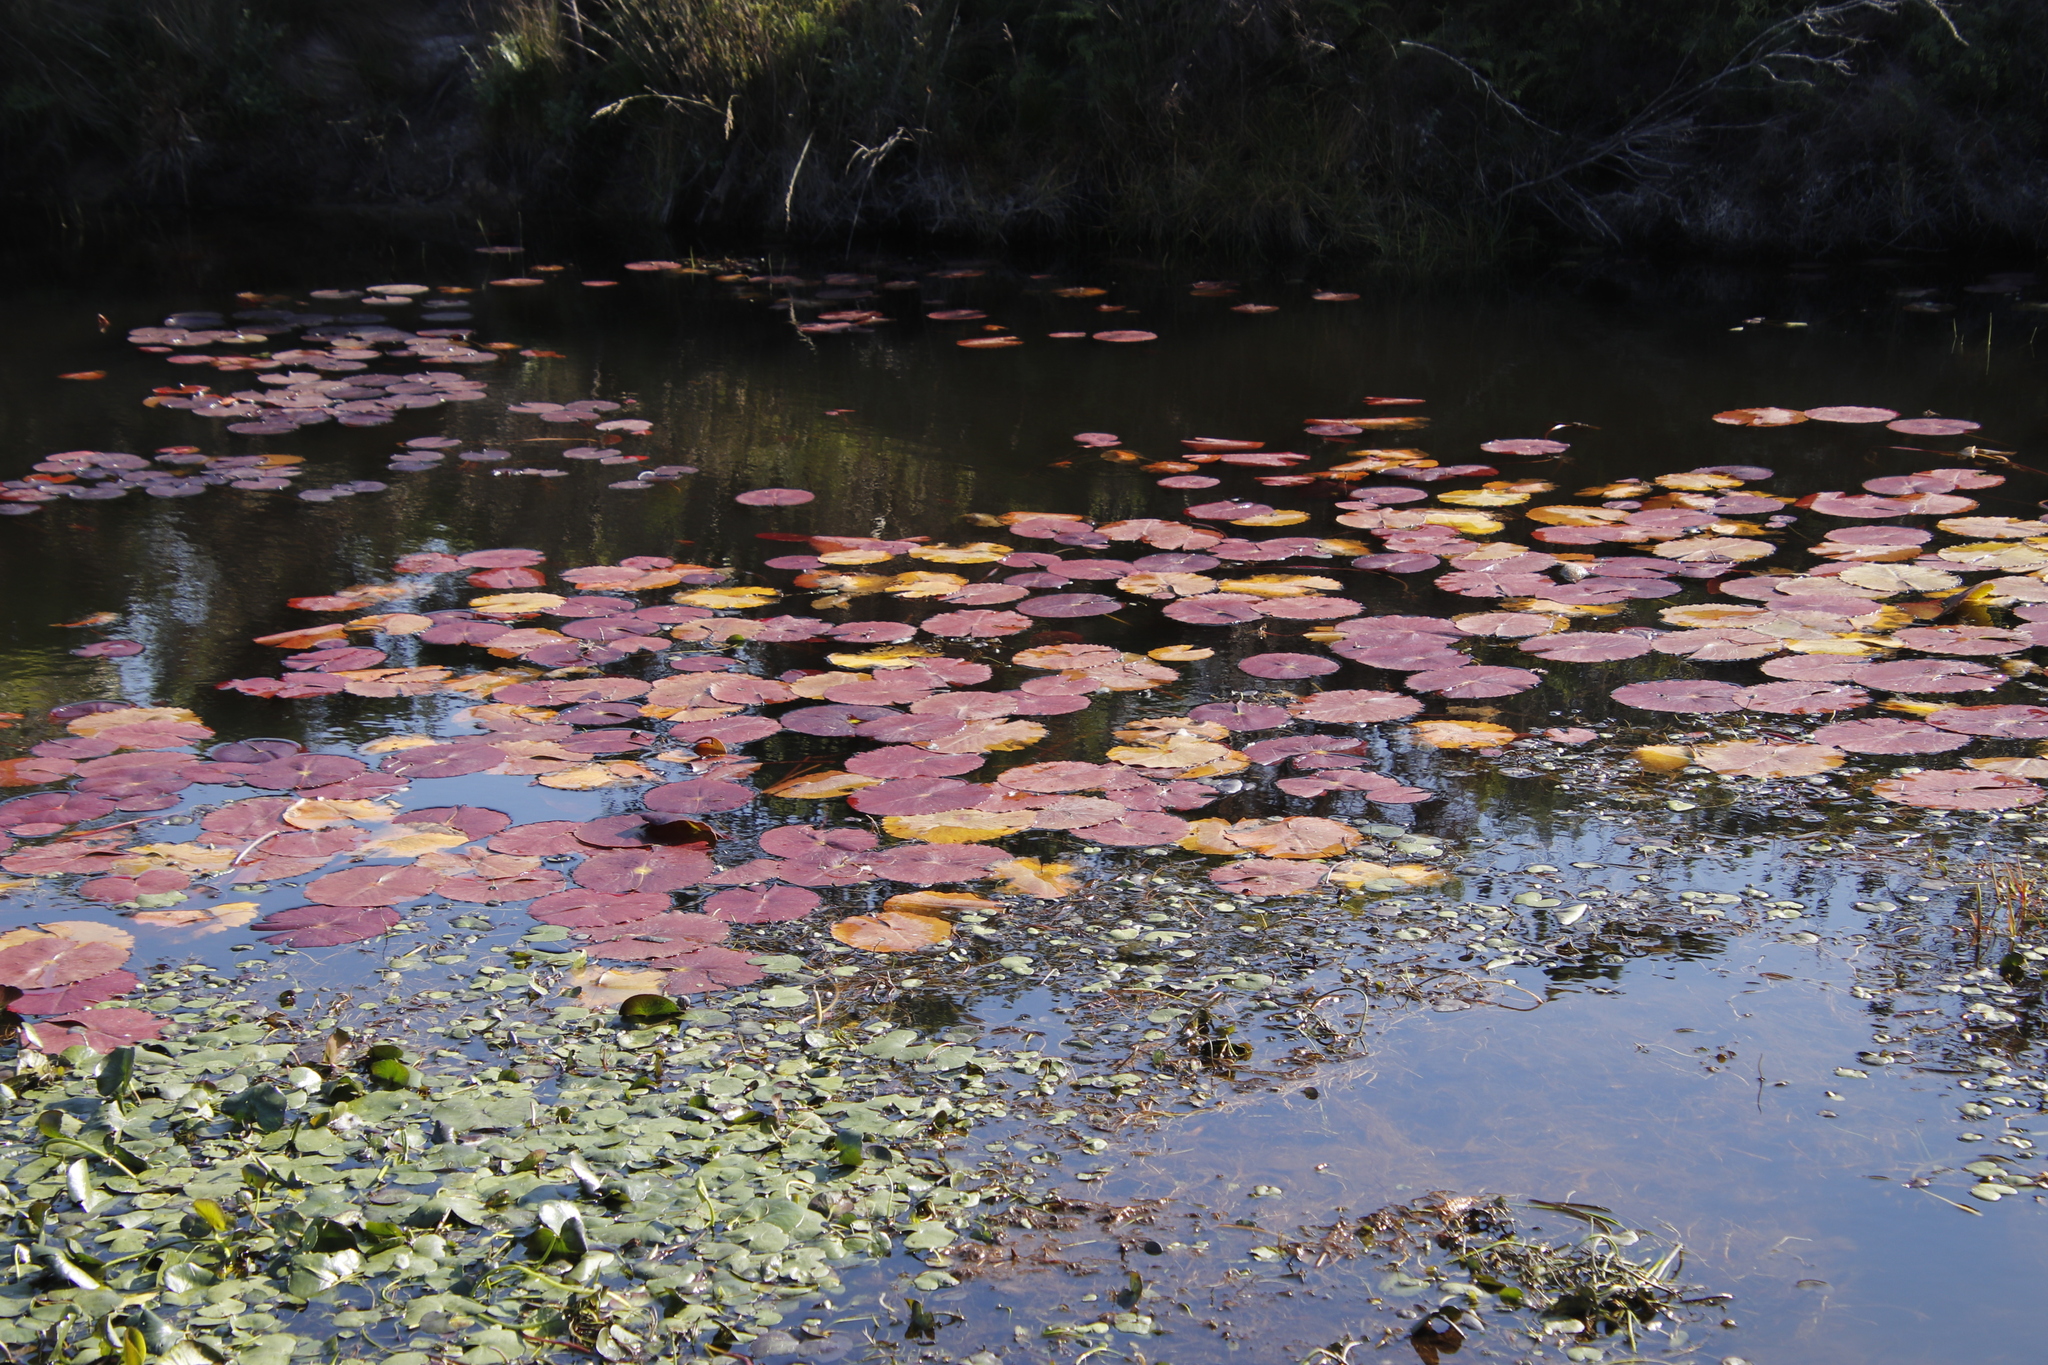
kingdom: Plantae
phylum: Tracheophyta
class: Magnoliopsida
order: Nymphaeales
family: Nymphaeaceae
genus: Nymphaea
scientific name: Nymphaea nouchali
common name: Blue lotus
